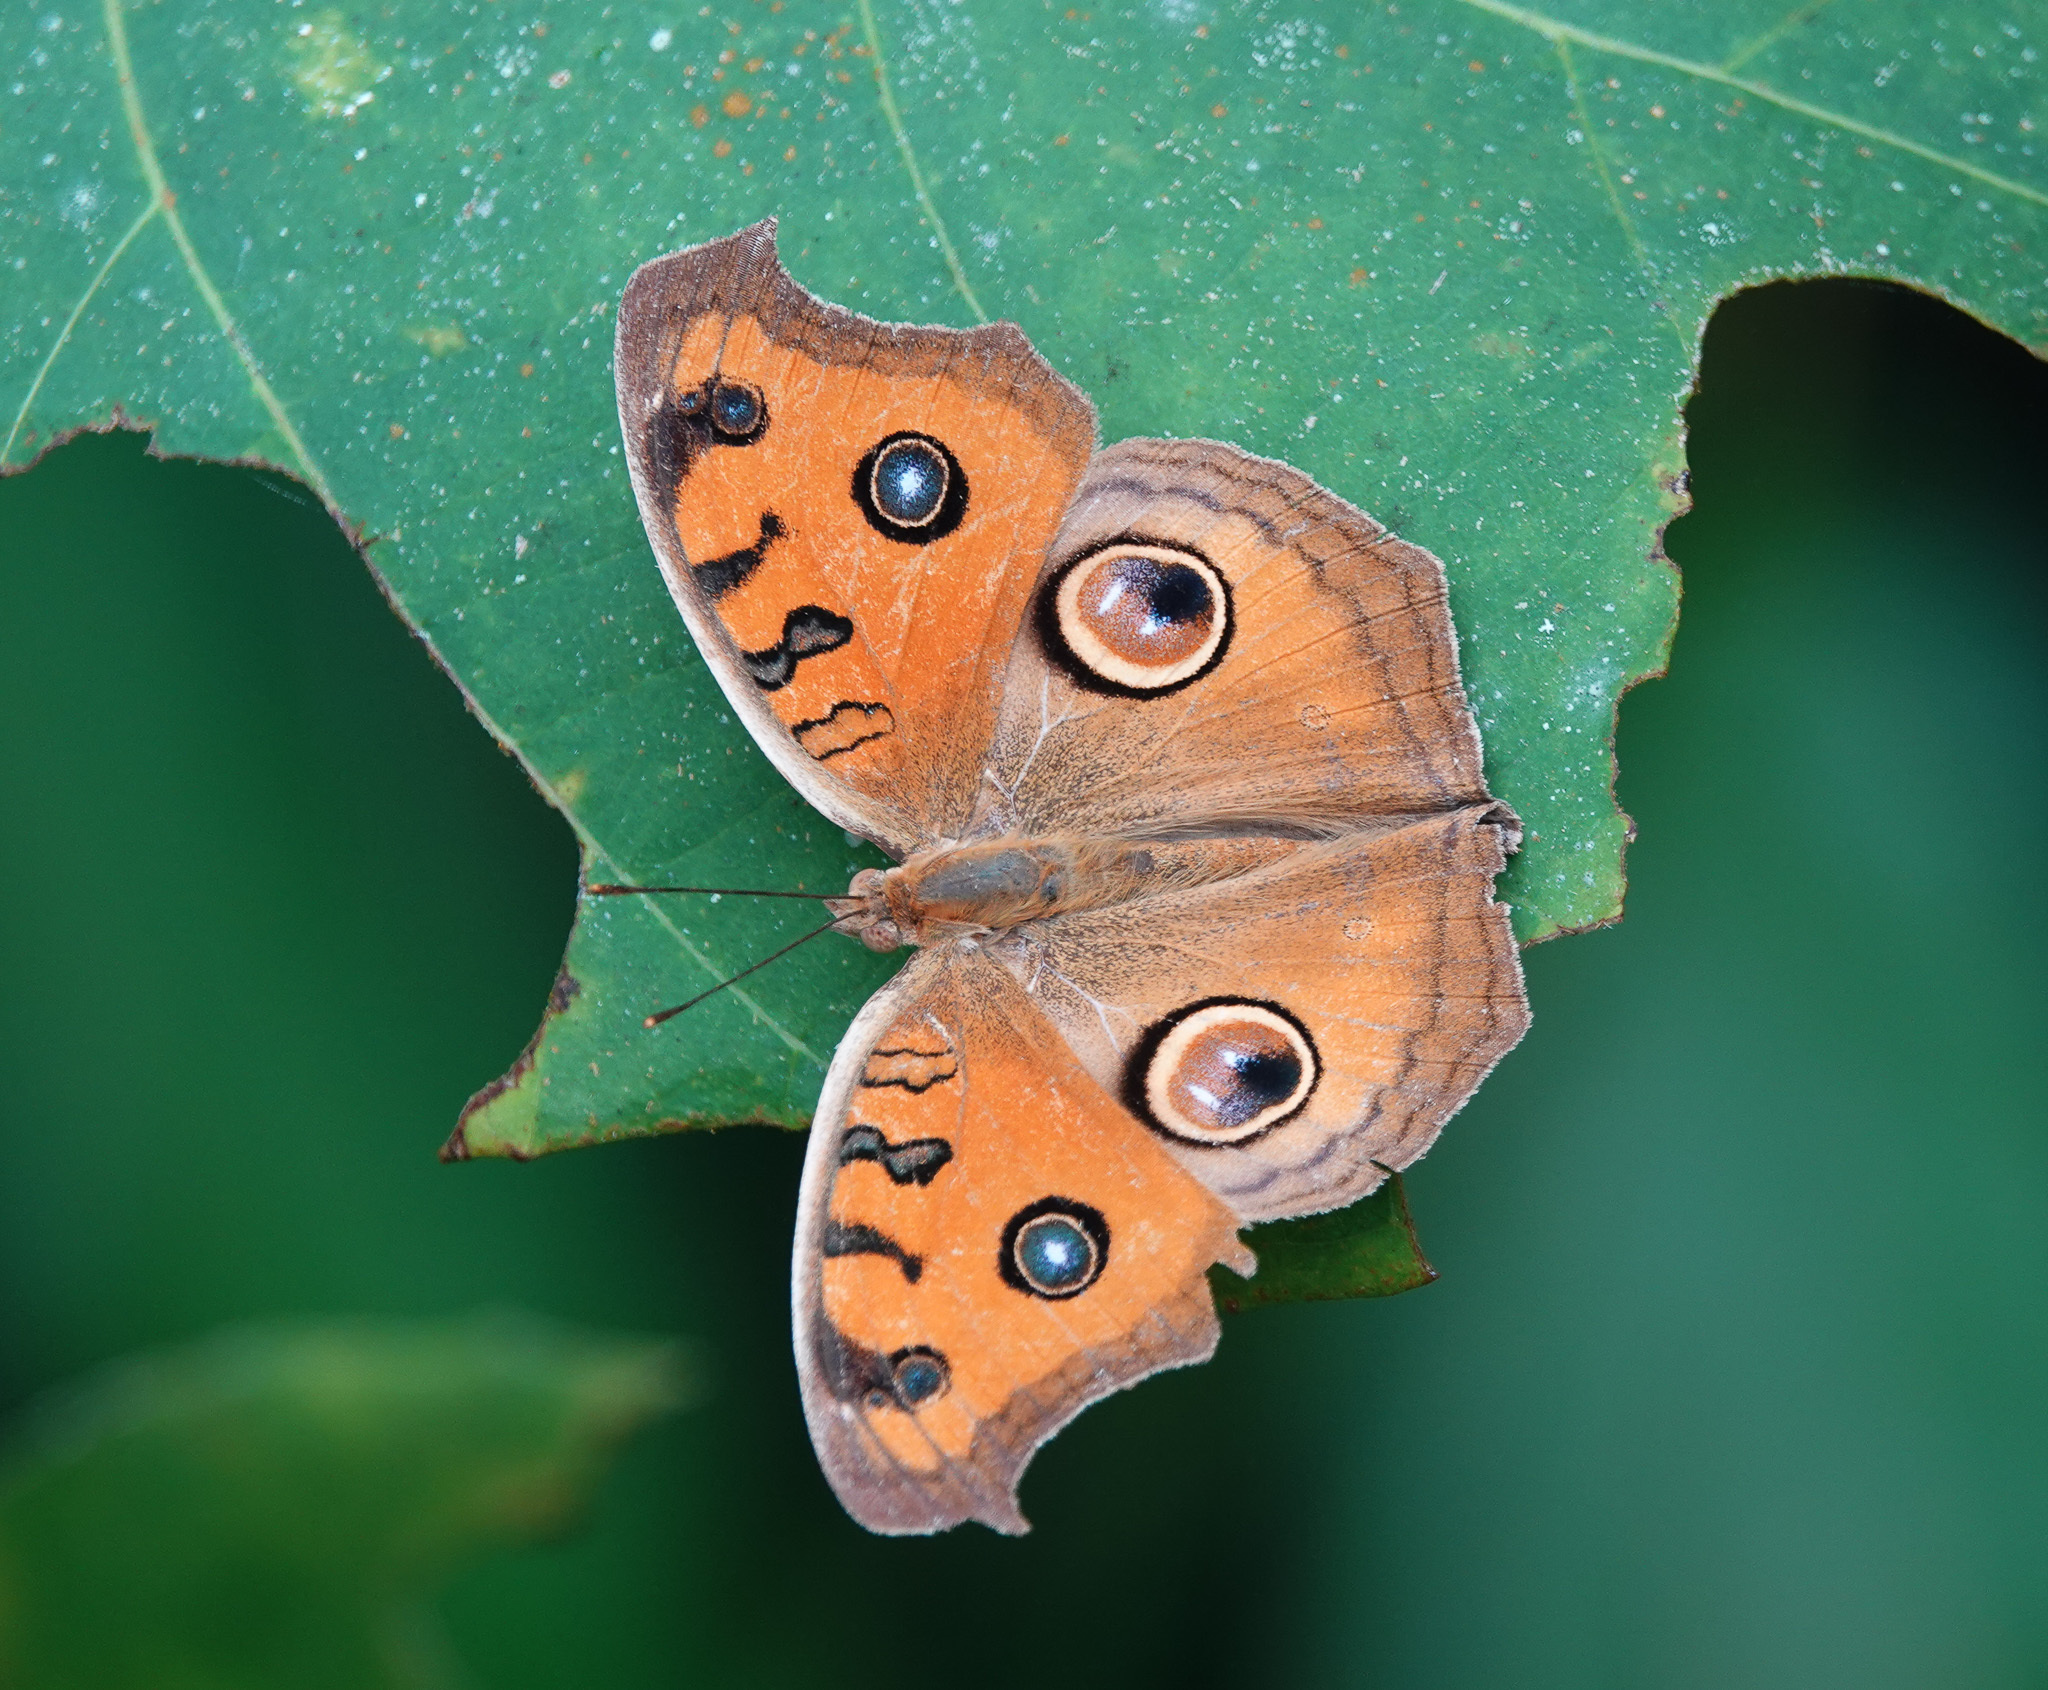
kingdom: Animalia
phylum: Arthropoda
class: Insecta
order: Lepidoptera
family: Nymphalidae
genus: Junonia
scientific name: Junonia almana
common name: Peacock pansy
